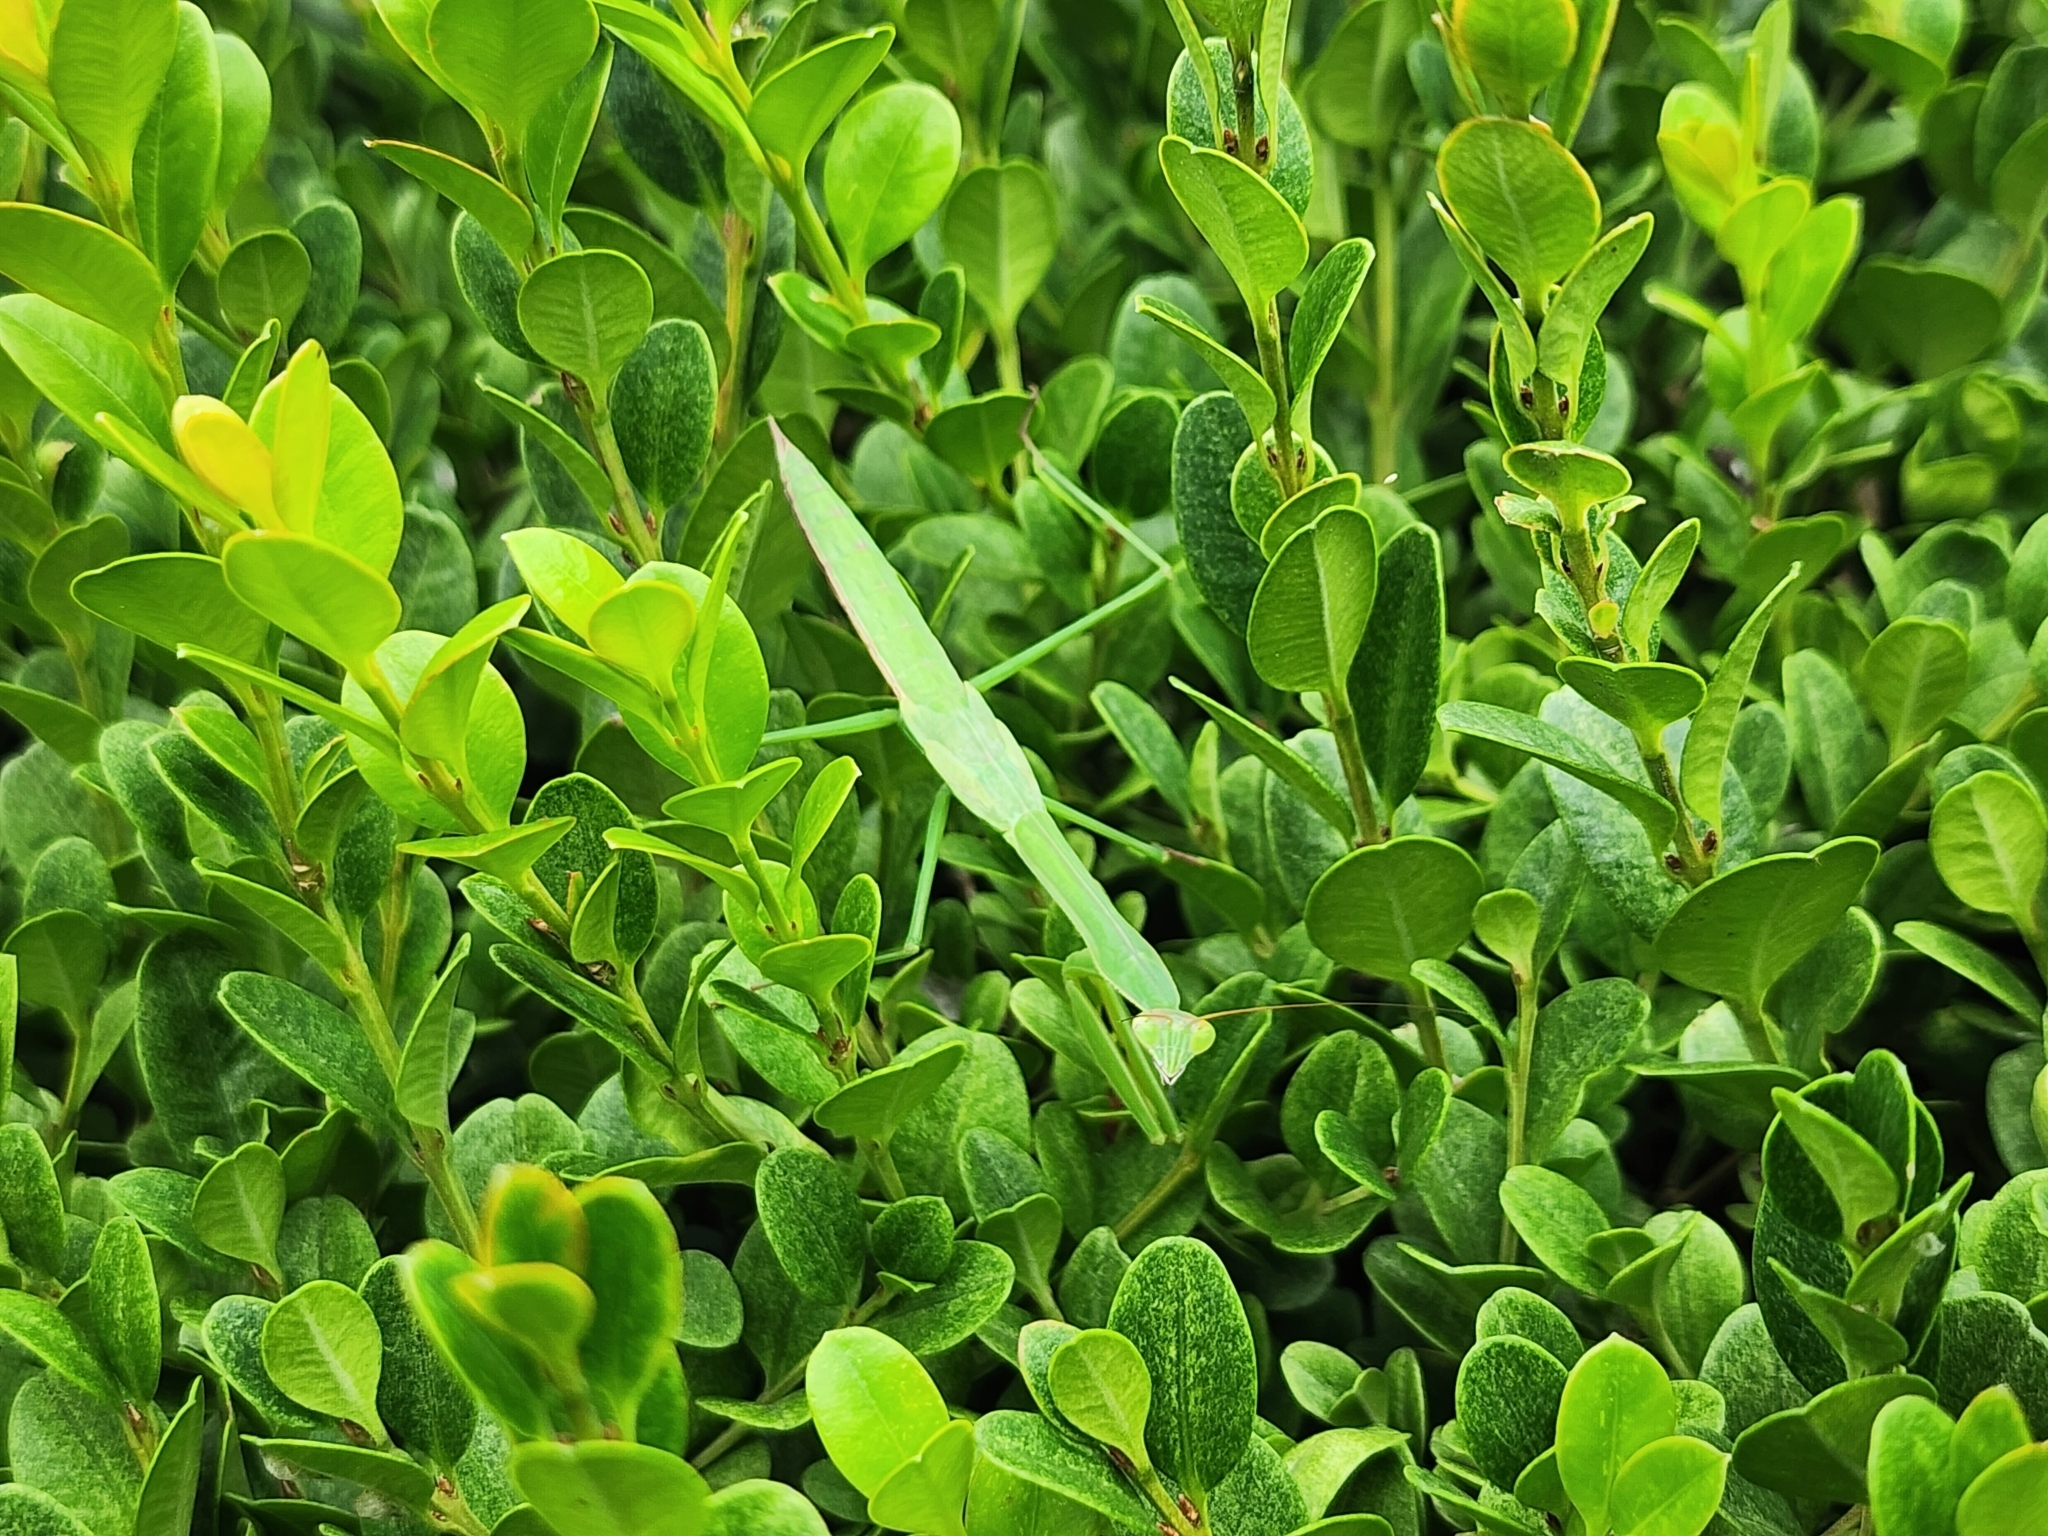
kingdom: Animalia
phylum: Arthropoda
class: Insecta
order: Mantodea
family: Mantidae
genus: Tenodera
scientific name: Tenodera sinensis
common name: Chinese mantis
